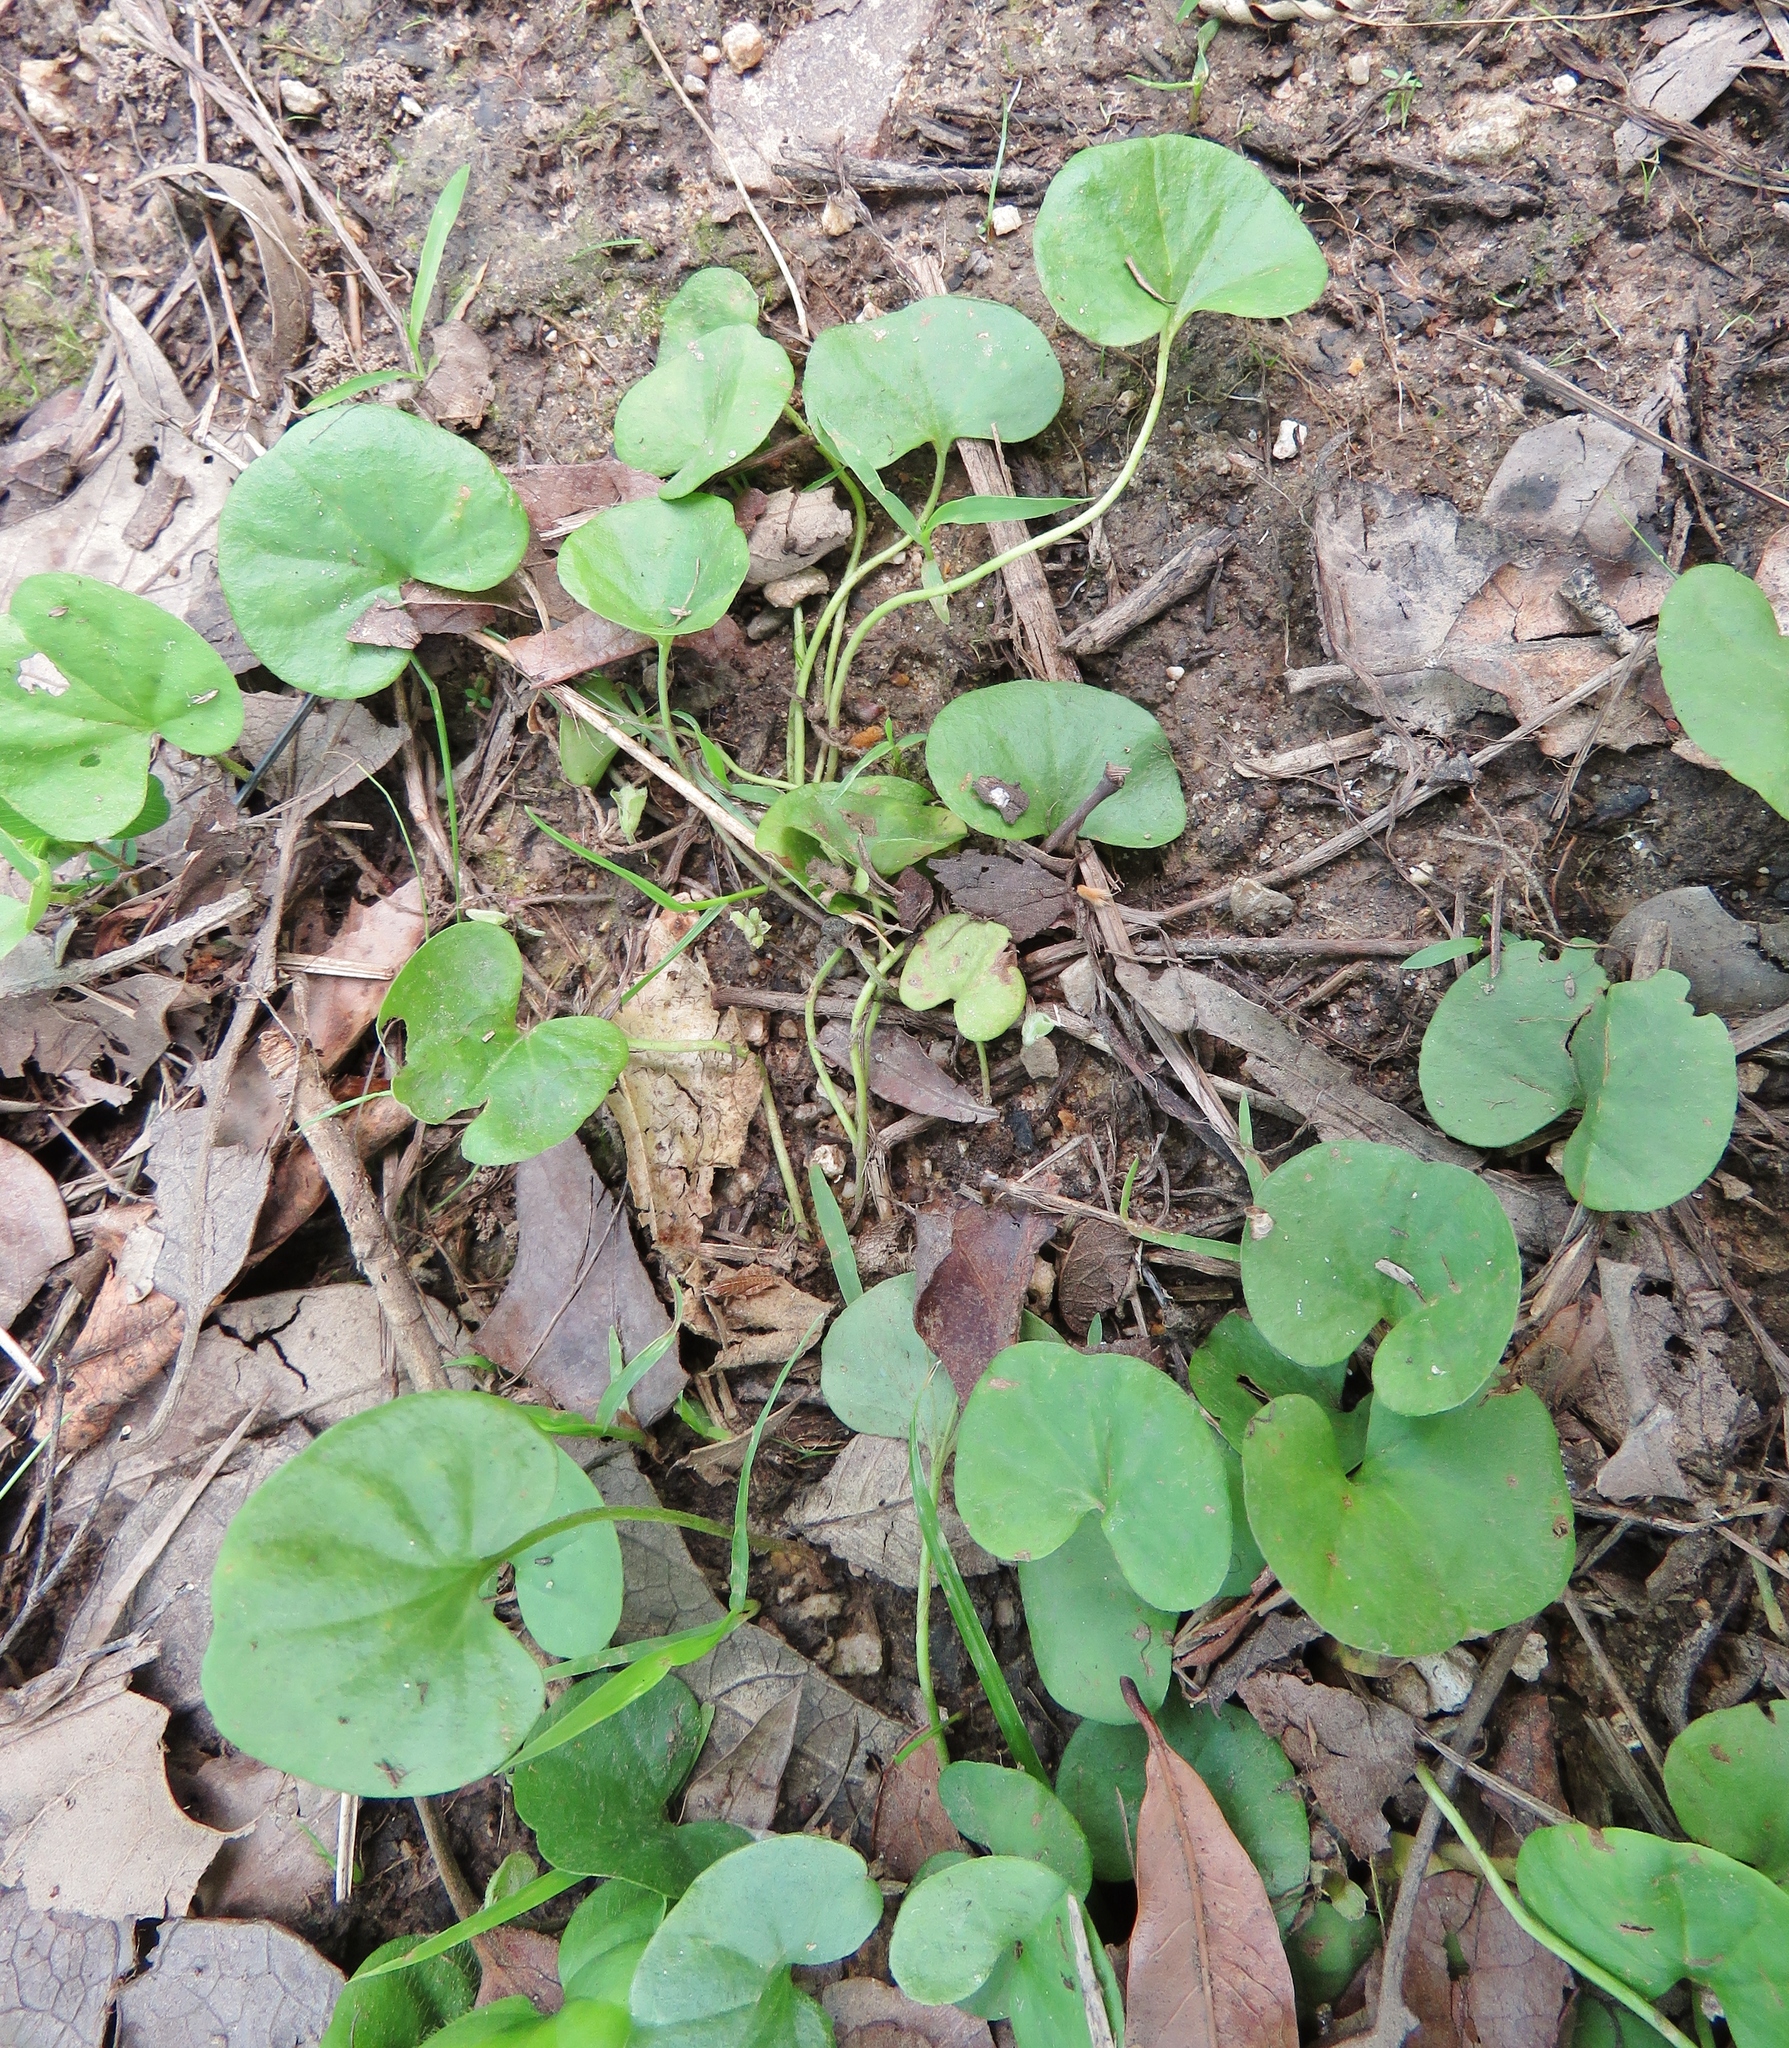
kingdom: Plantae
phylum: Tracheophyta
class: Magnoliopsida
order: Solanales
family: Convolvulaceae
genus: Dichondra
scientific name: Dichondra carolinensis
